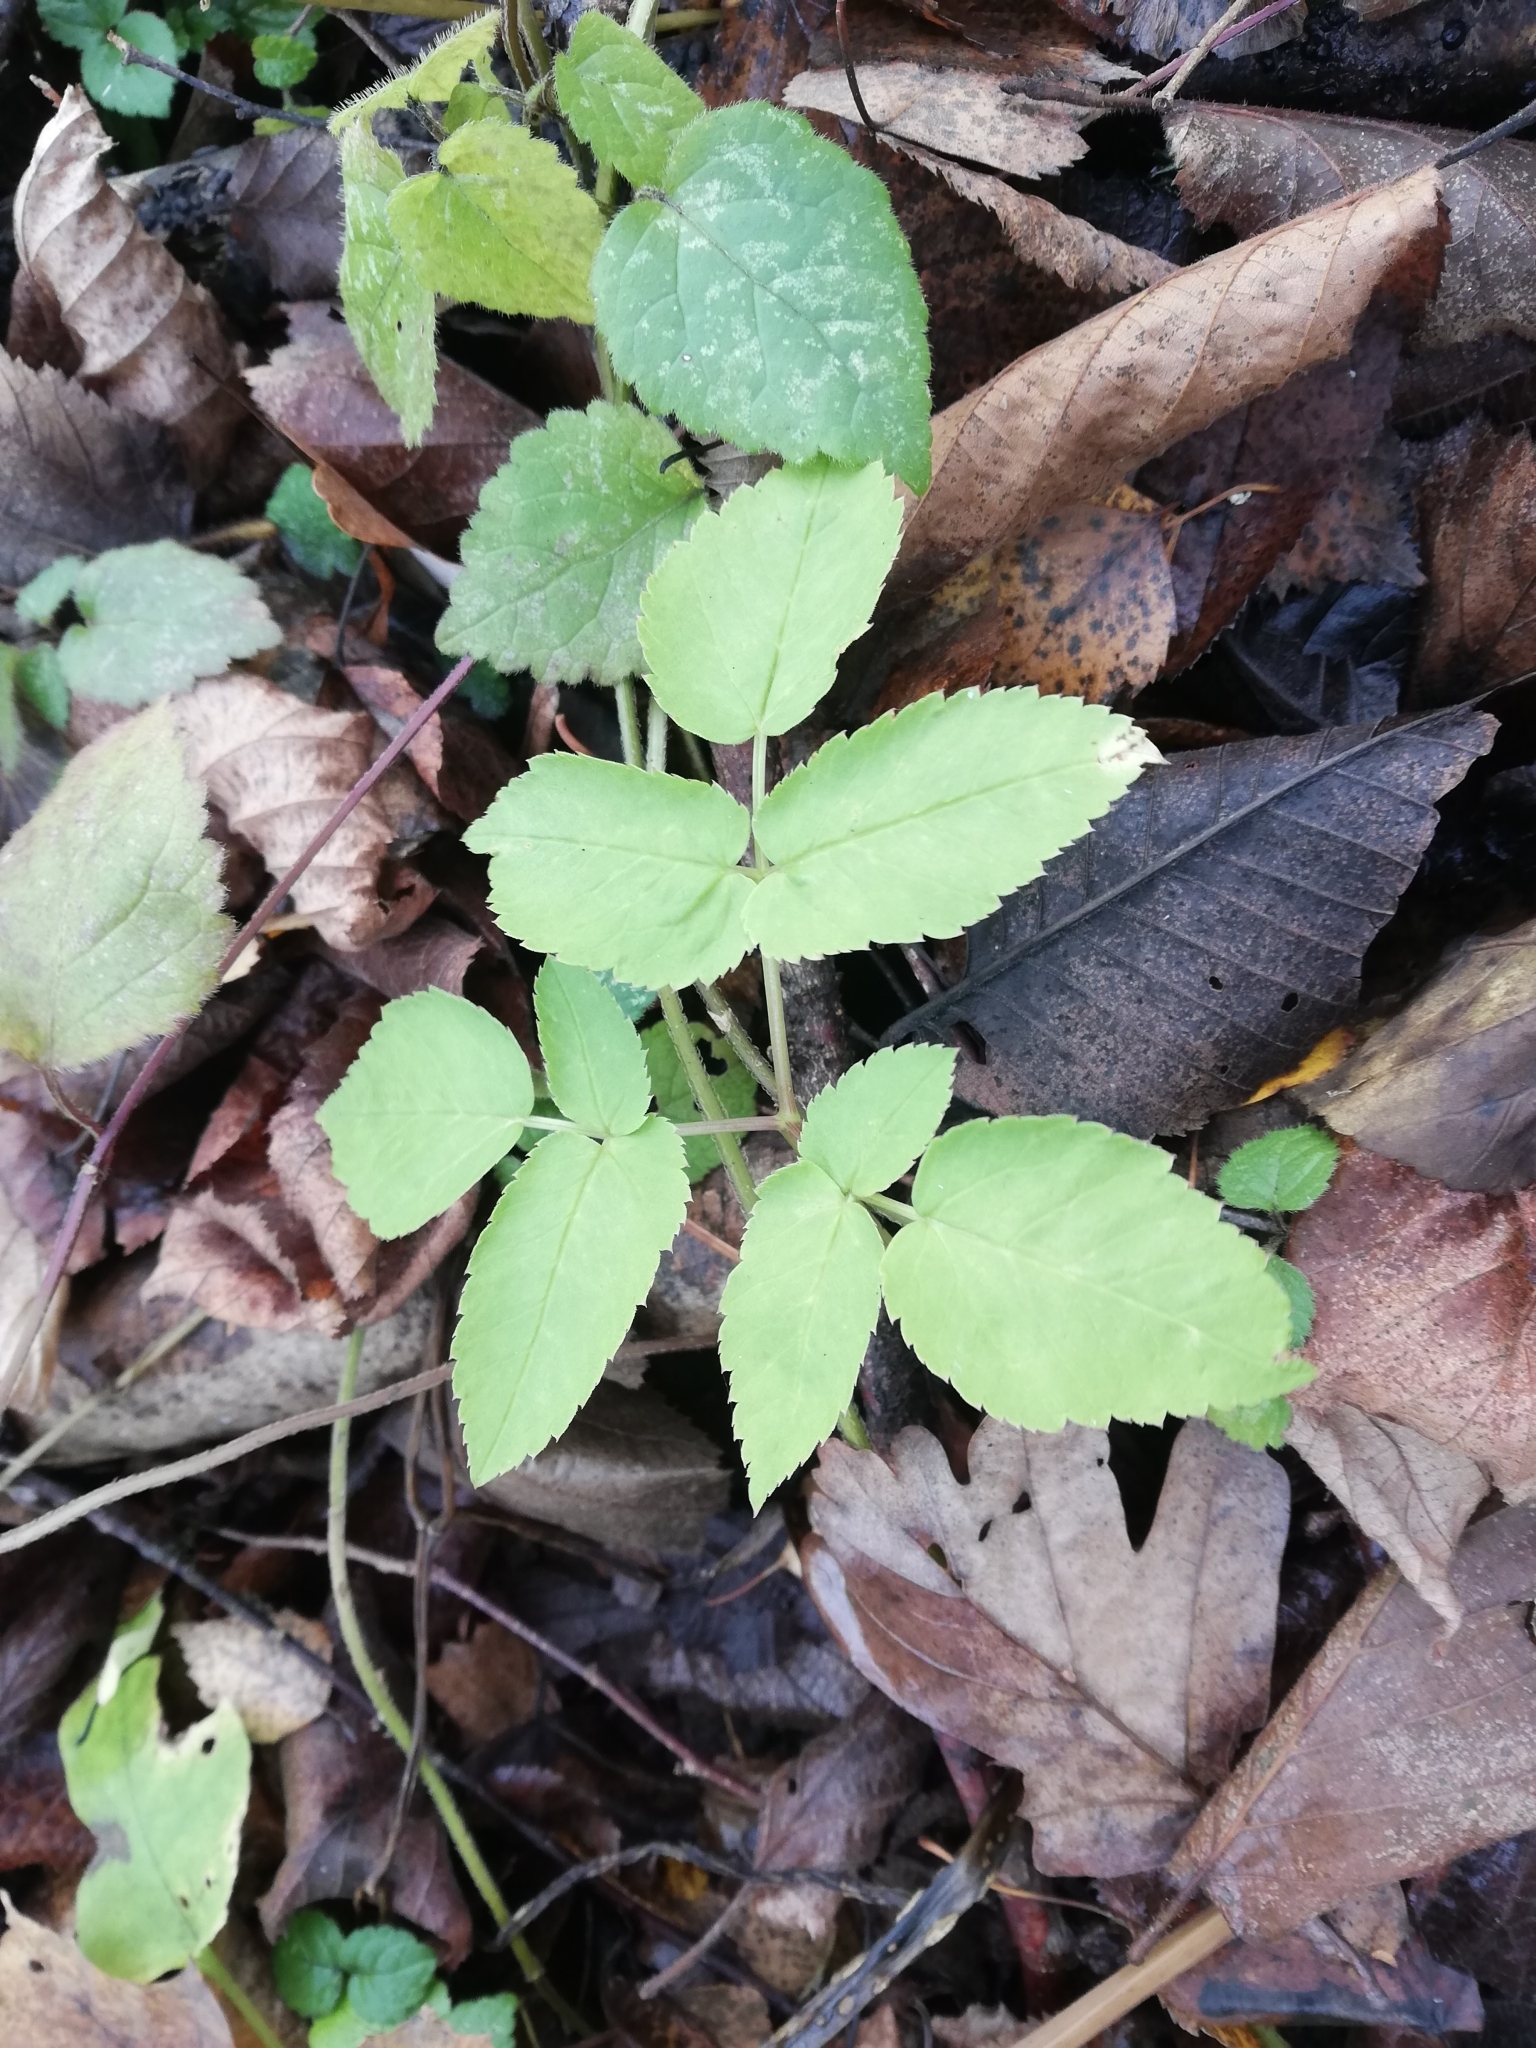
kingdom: Plantae
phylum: Tracheophyta
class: Magnoliopsida
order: Apiales
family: Apiaceae
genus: Aegopodium
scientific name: Aegopodium podagraria
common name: Ground-elder
